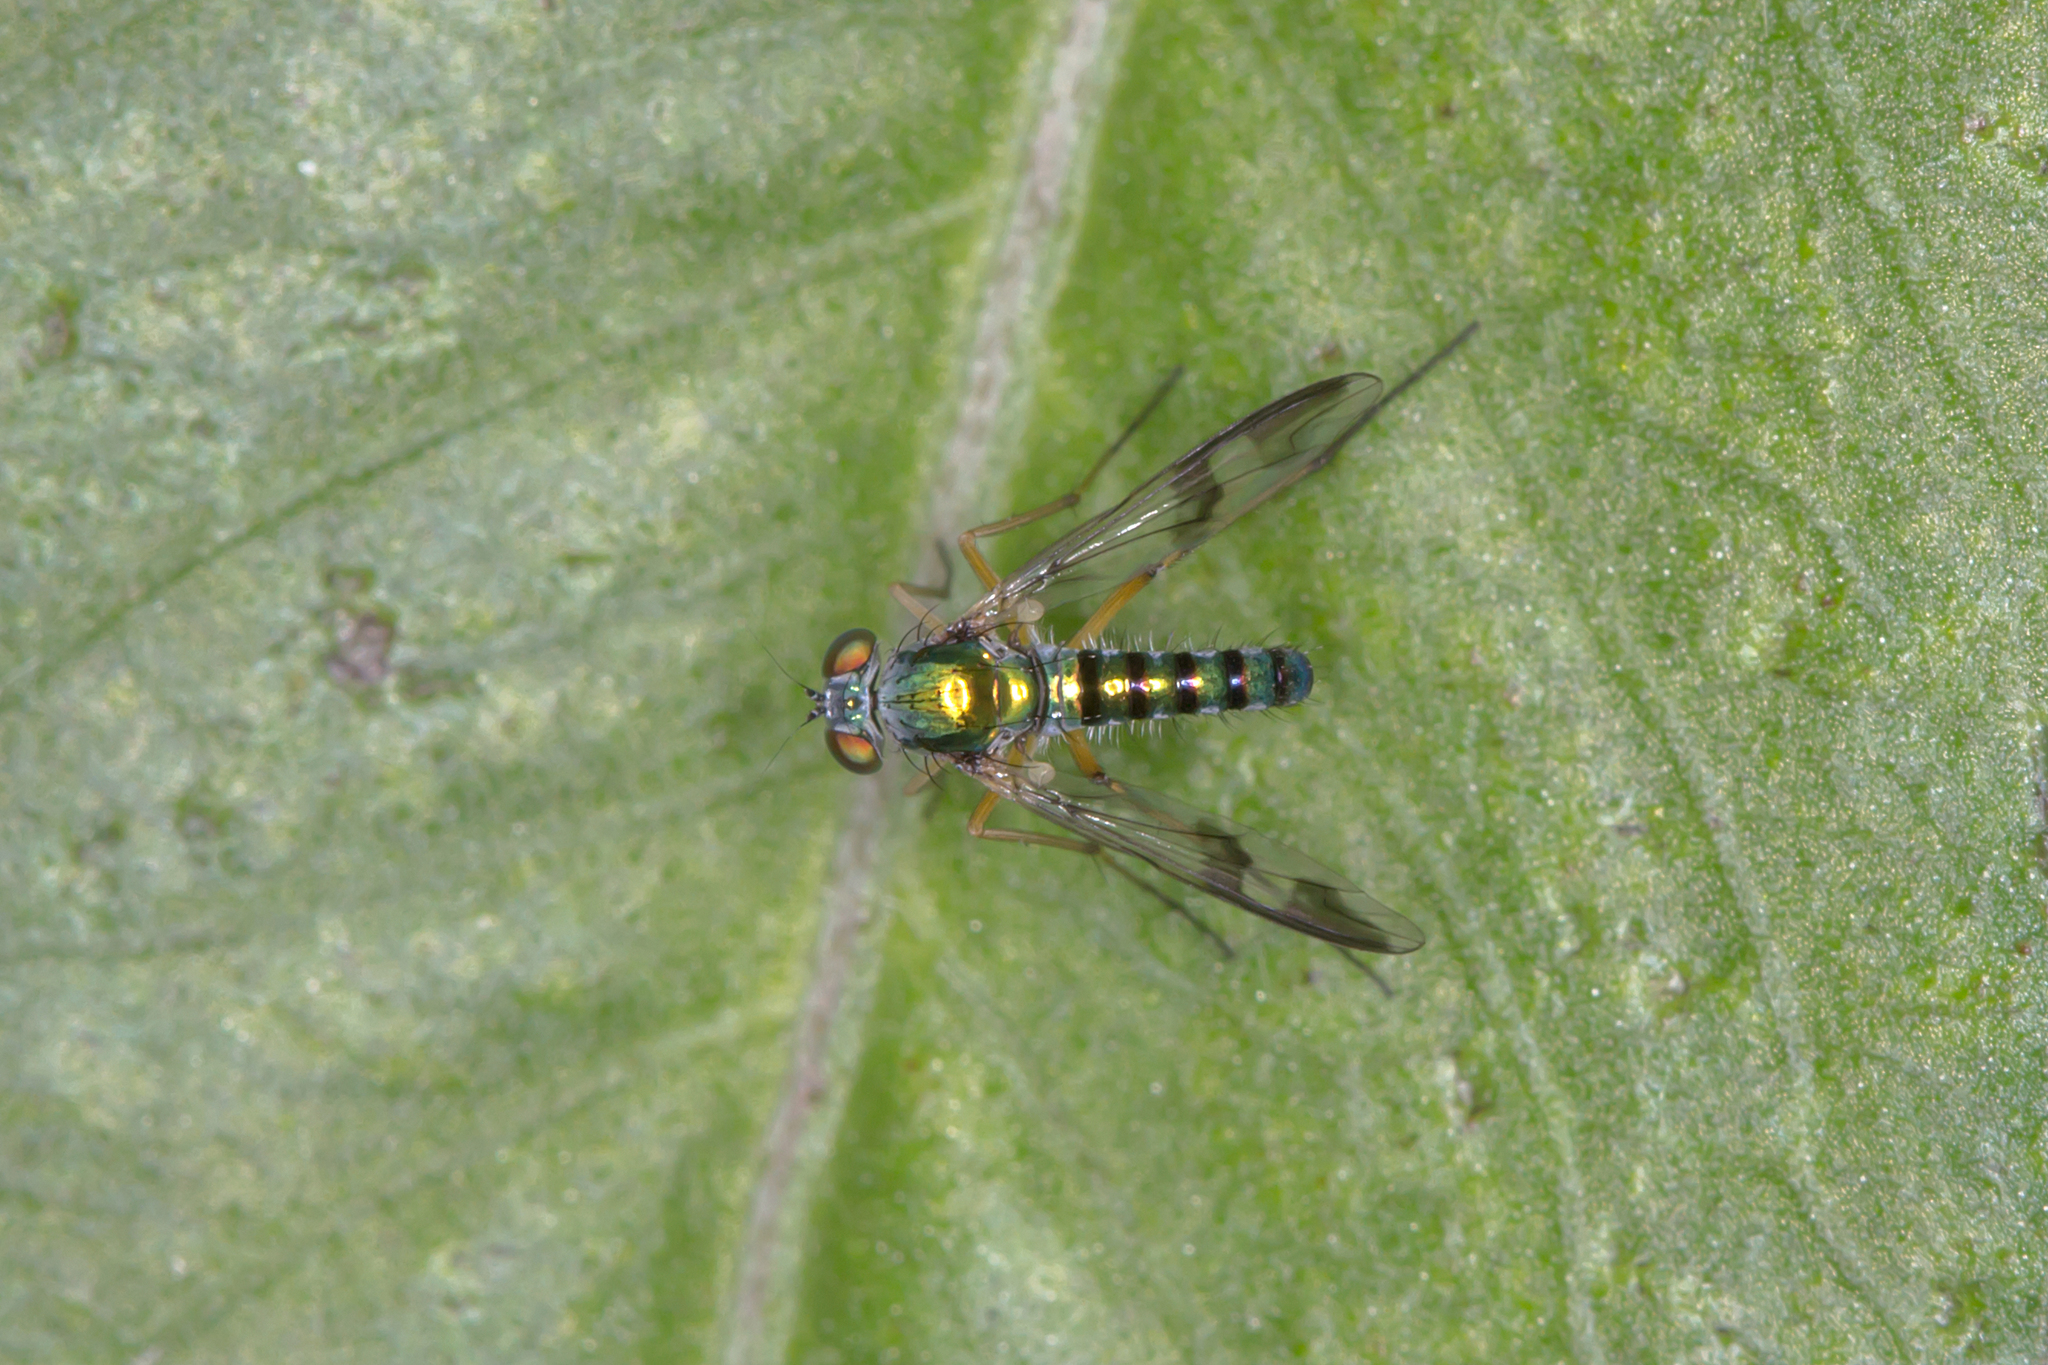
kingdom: Animalia
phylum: Arthropoda
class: Insecta
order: Diptera
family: Dolichopodidae
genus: Austrosciapus
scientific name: Austrosciapus
